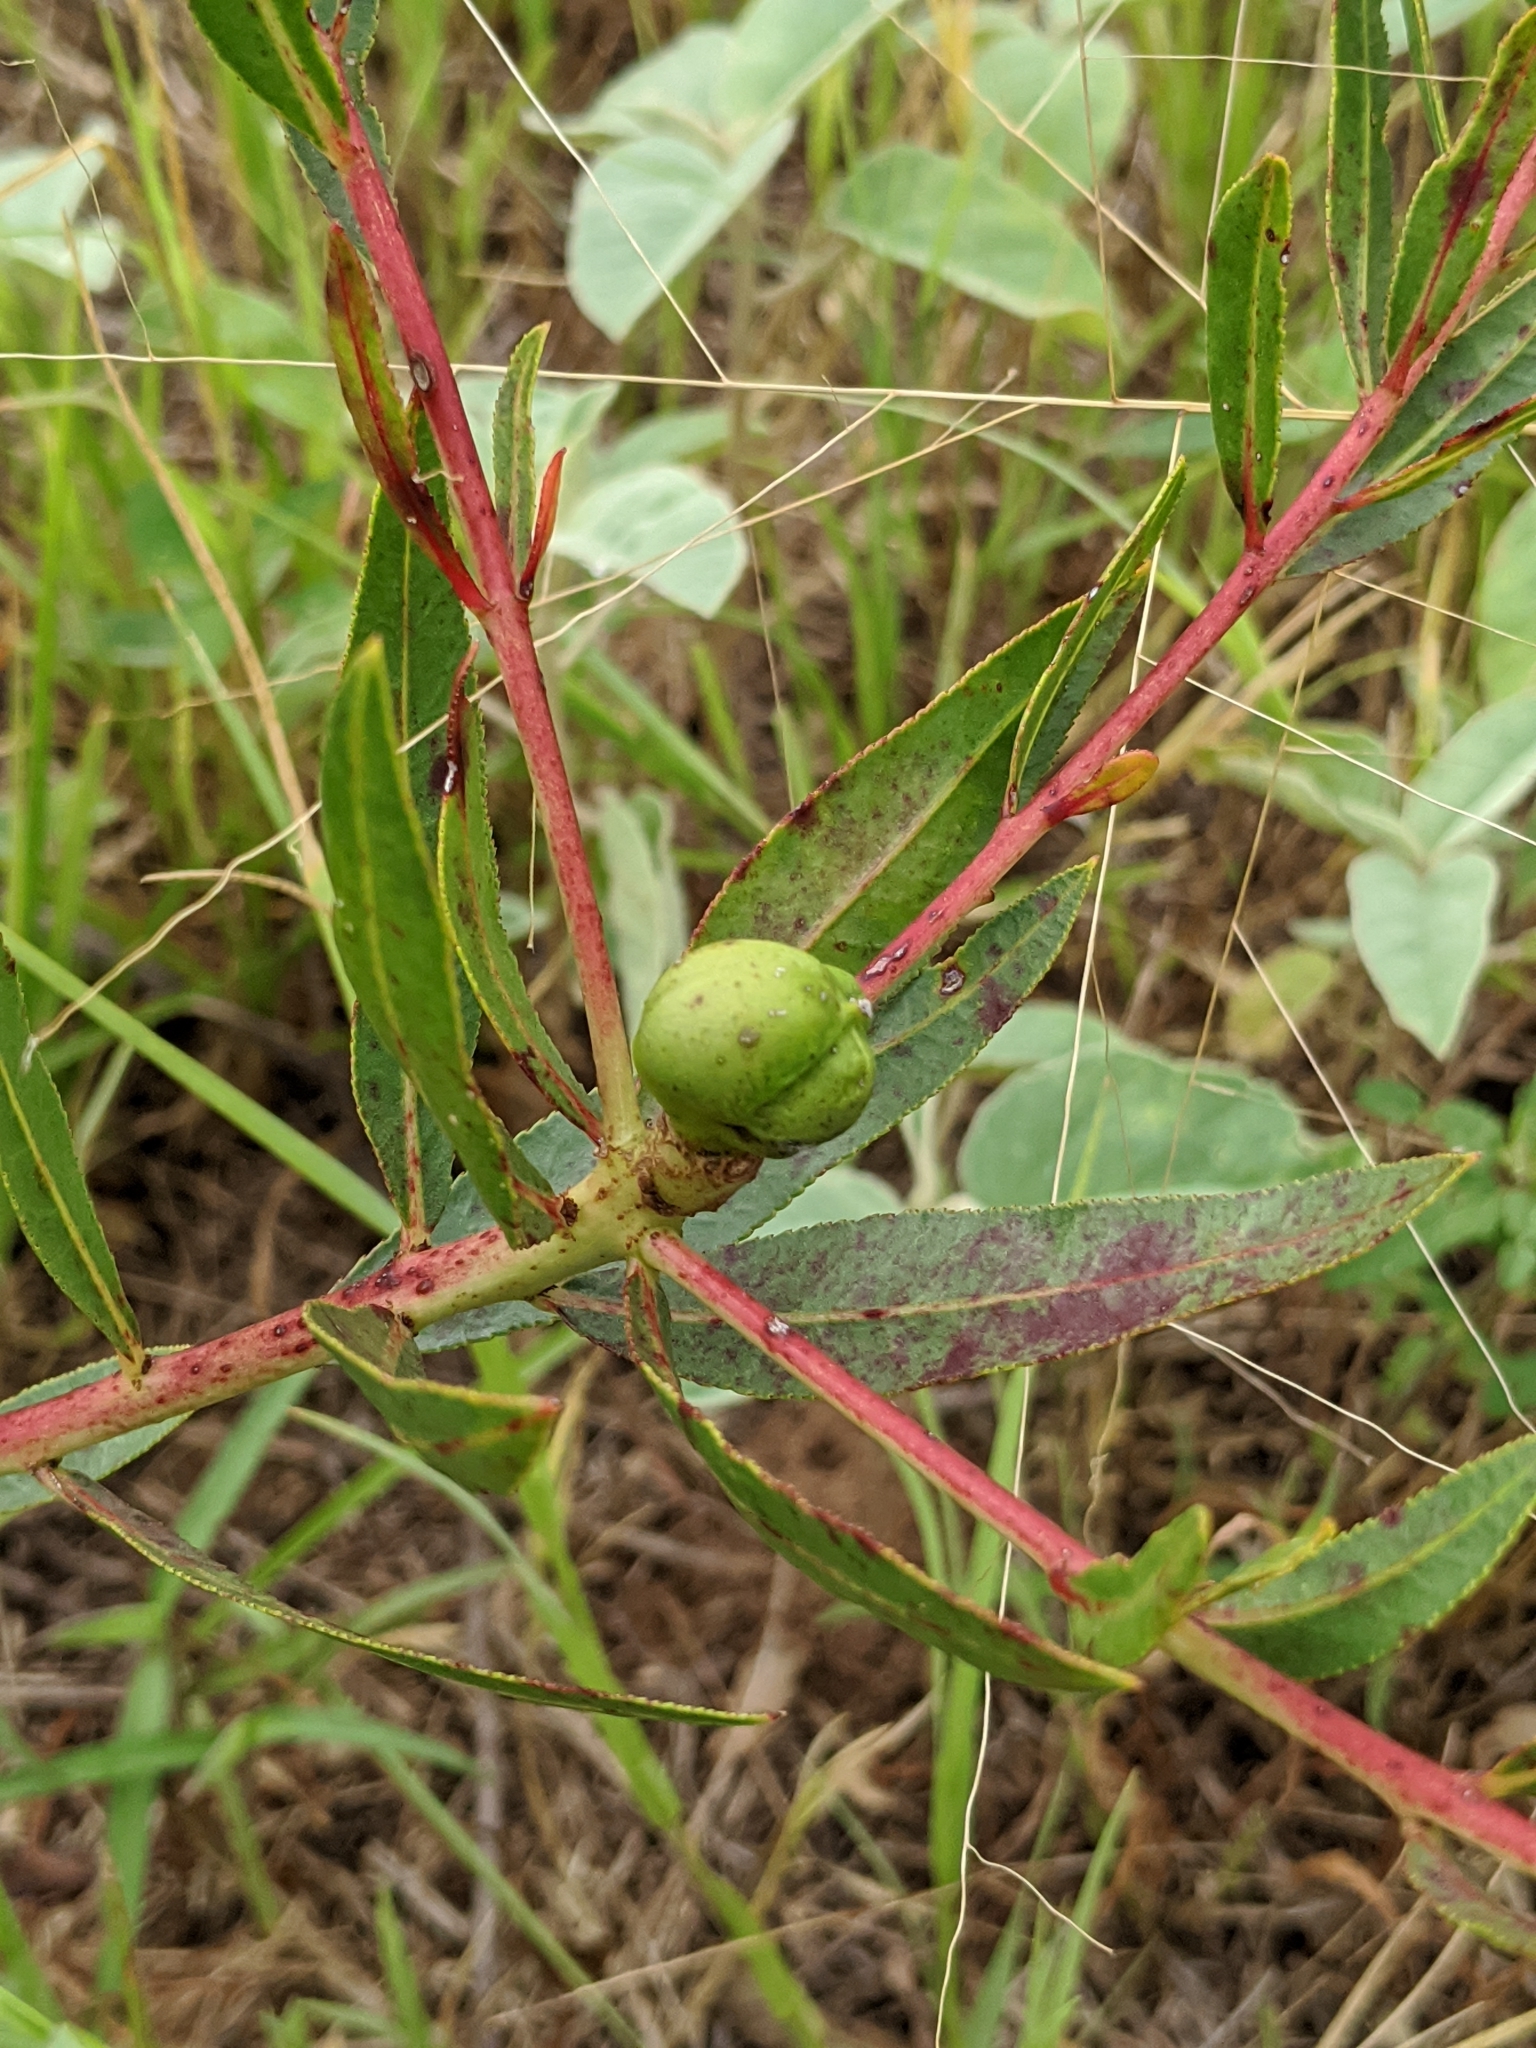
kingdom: Plantae
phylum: Tracheophyta
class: Magnoliopsida
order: Malpighiales
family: Euphorbiaceae
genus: Stillingia
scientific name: Stillingia sylvatica
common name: Queen's-delight
